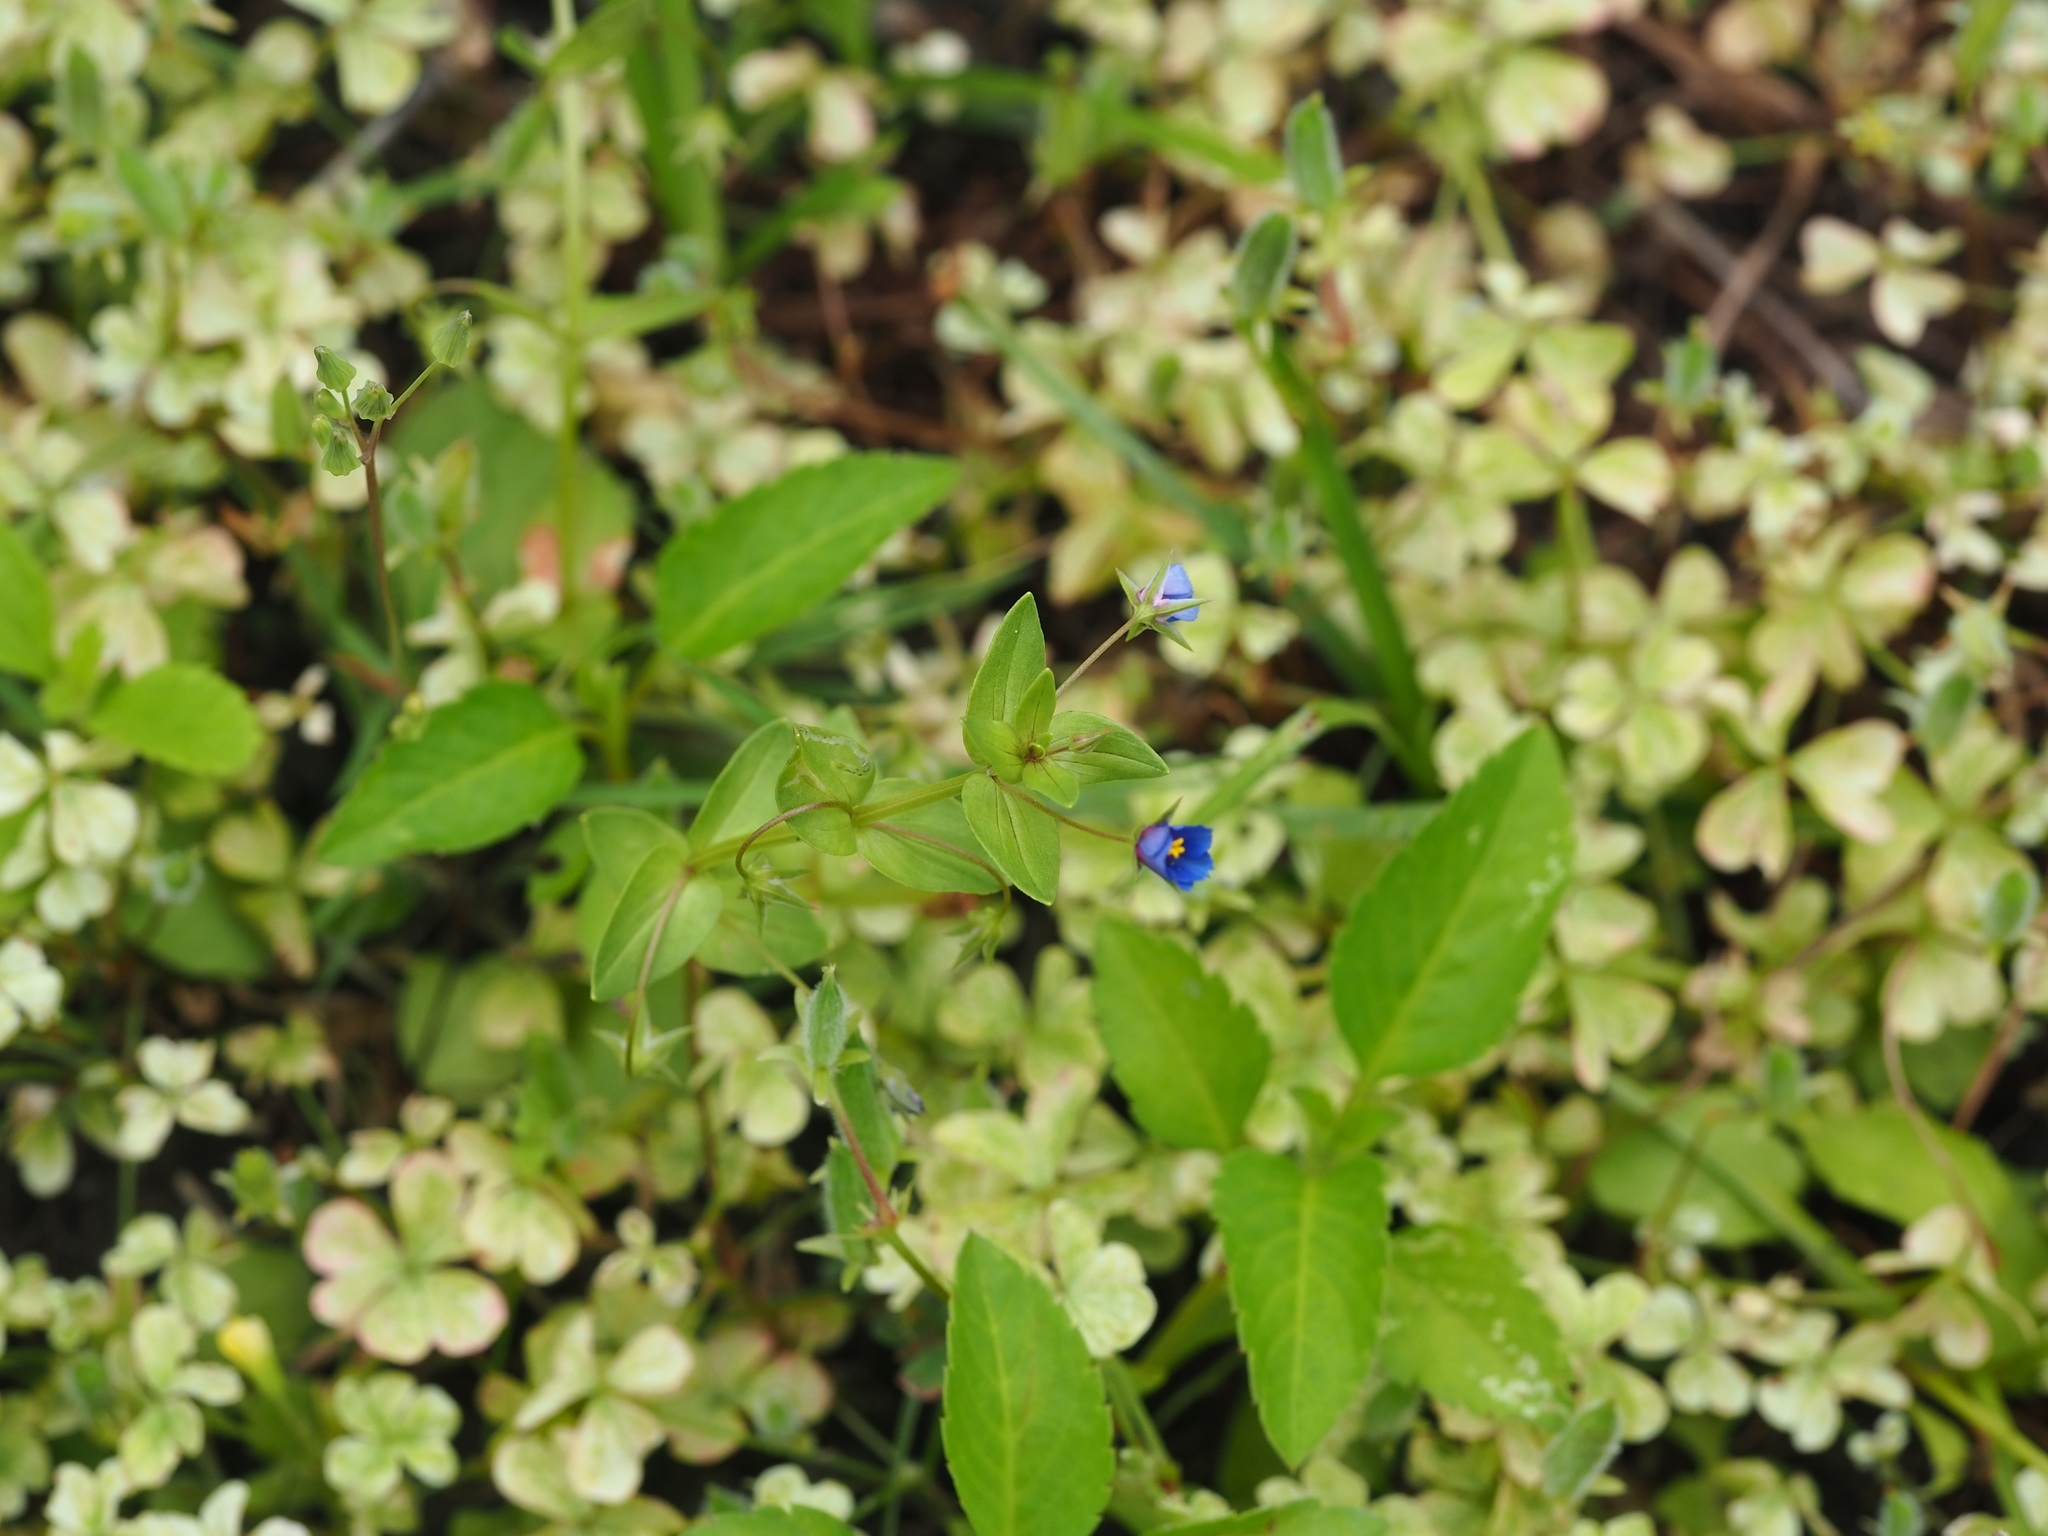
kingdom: Plantae
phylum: Tracheophyta
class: Magnoliopsida
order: Ericales
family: Primulaceae
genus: Lysimachia
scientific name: Lysimachia loeflingii
